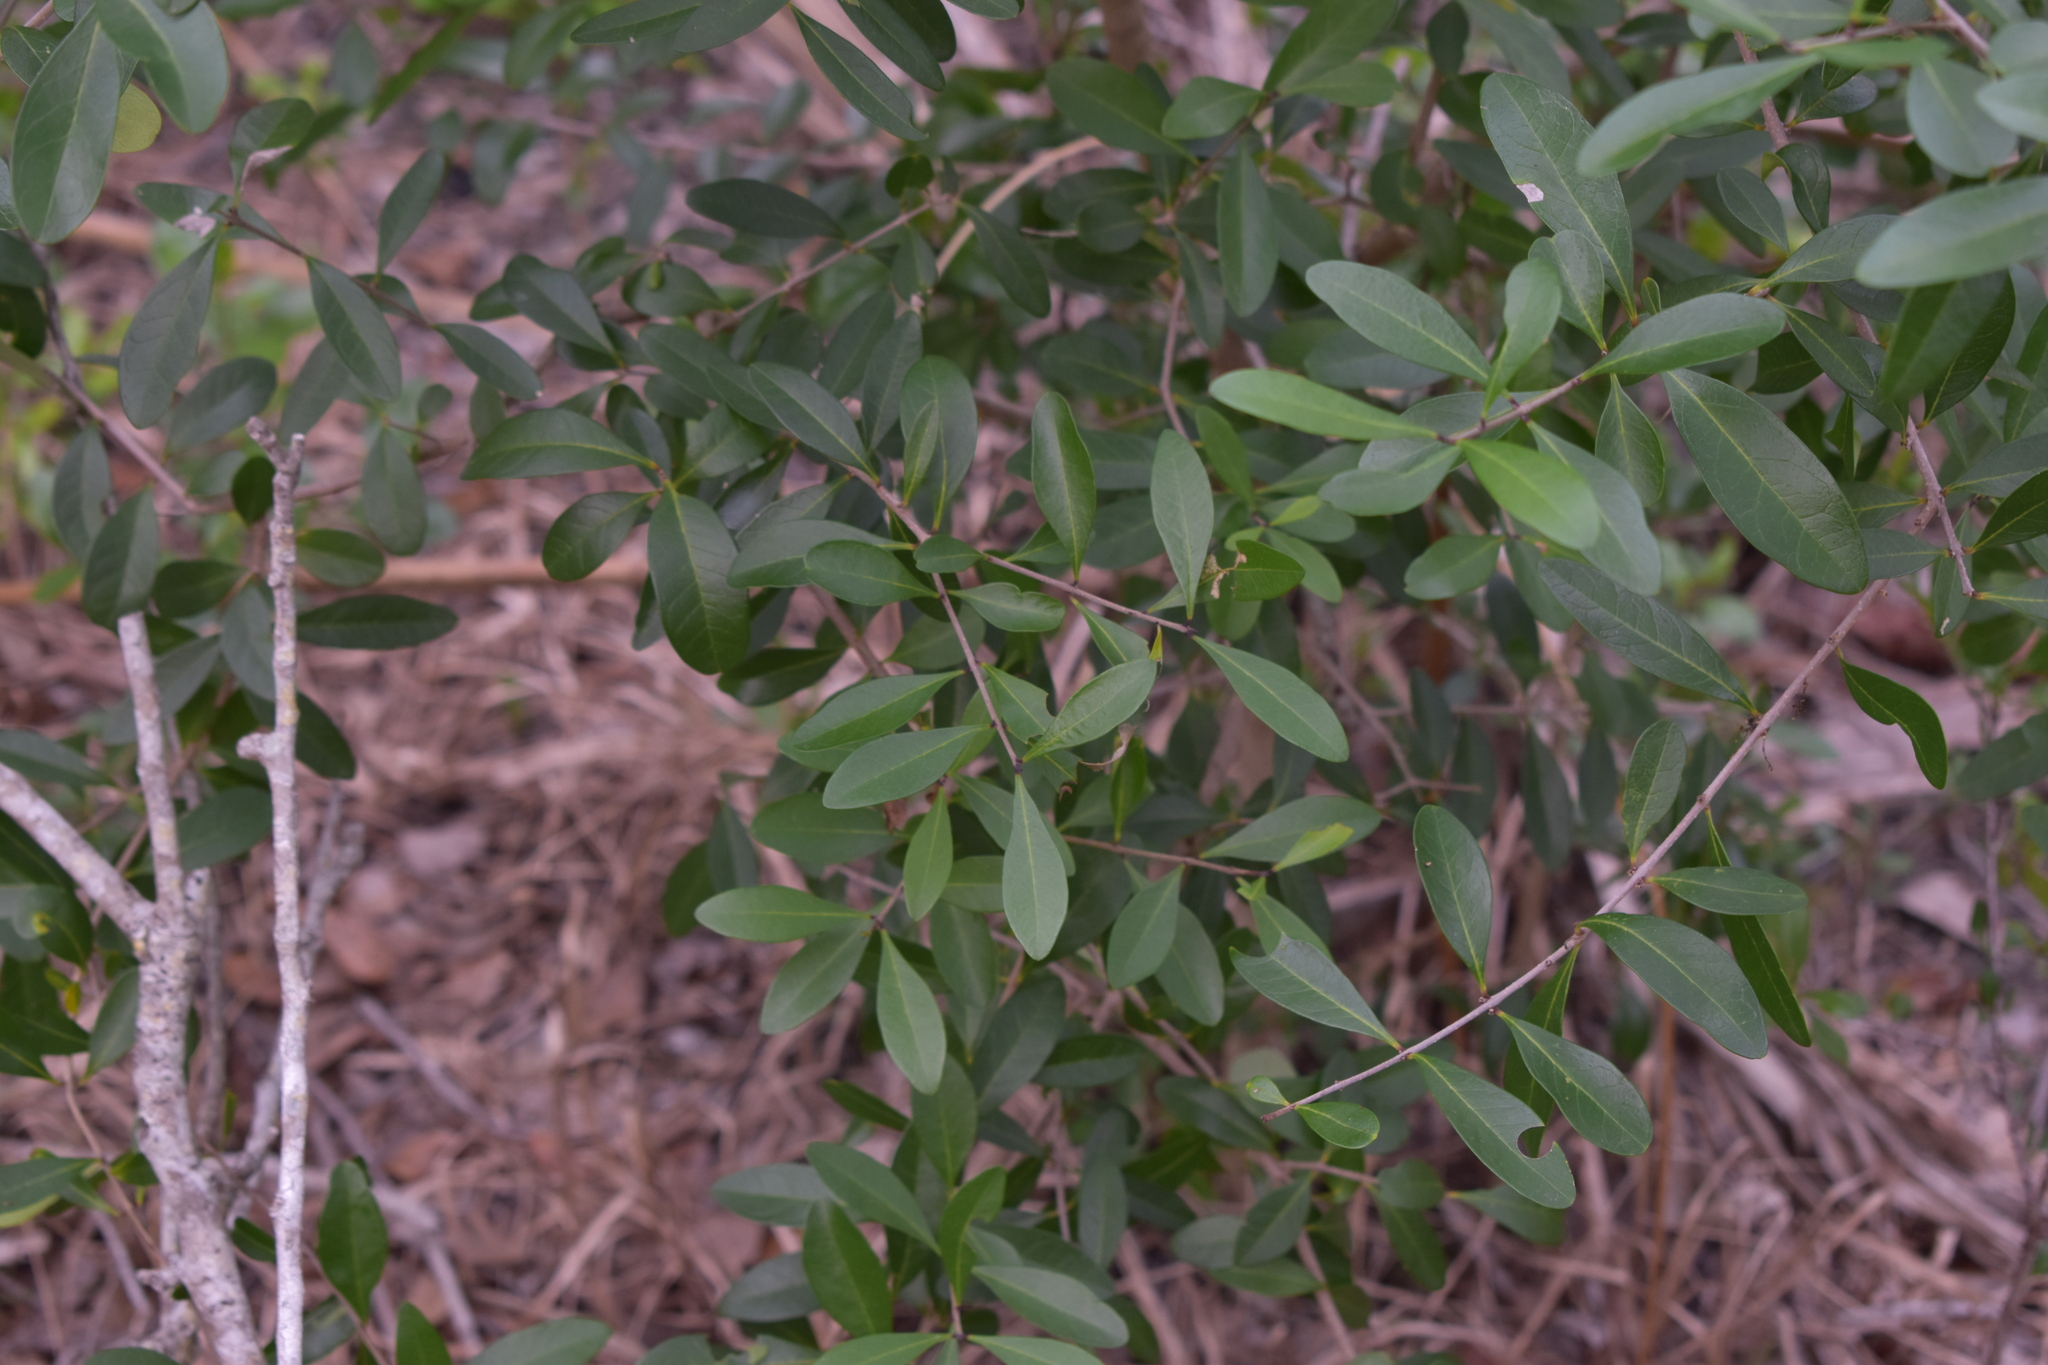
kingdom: Plantae
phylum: Tracheophyta
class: Magnoliopsida
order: Lamiales
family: Oleaceae
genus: Forestiera
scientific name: Forestiera segregata
